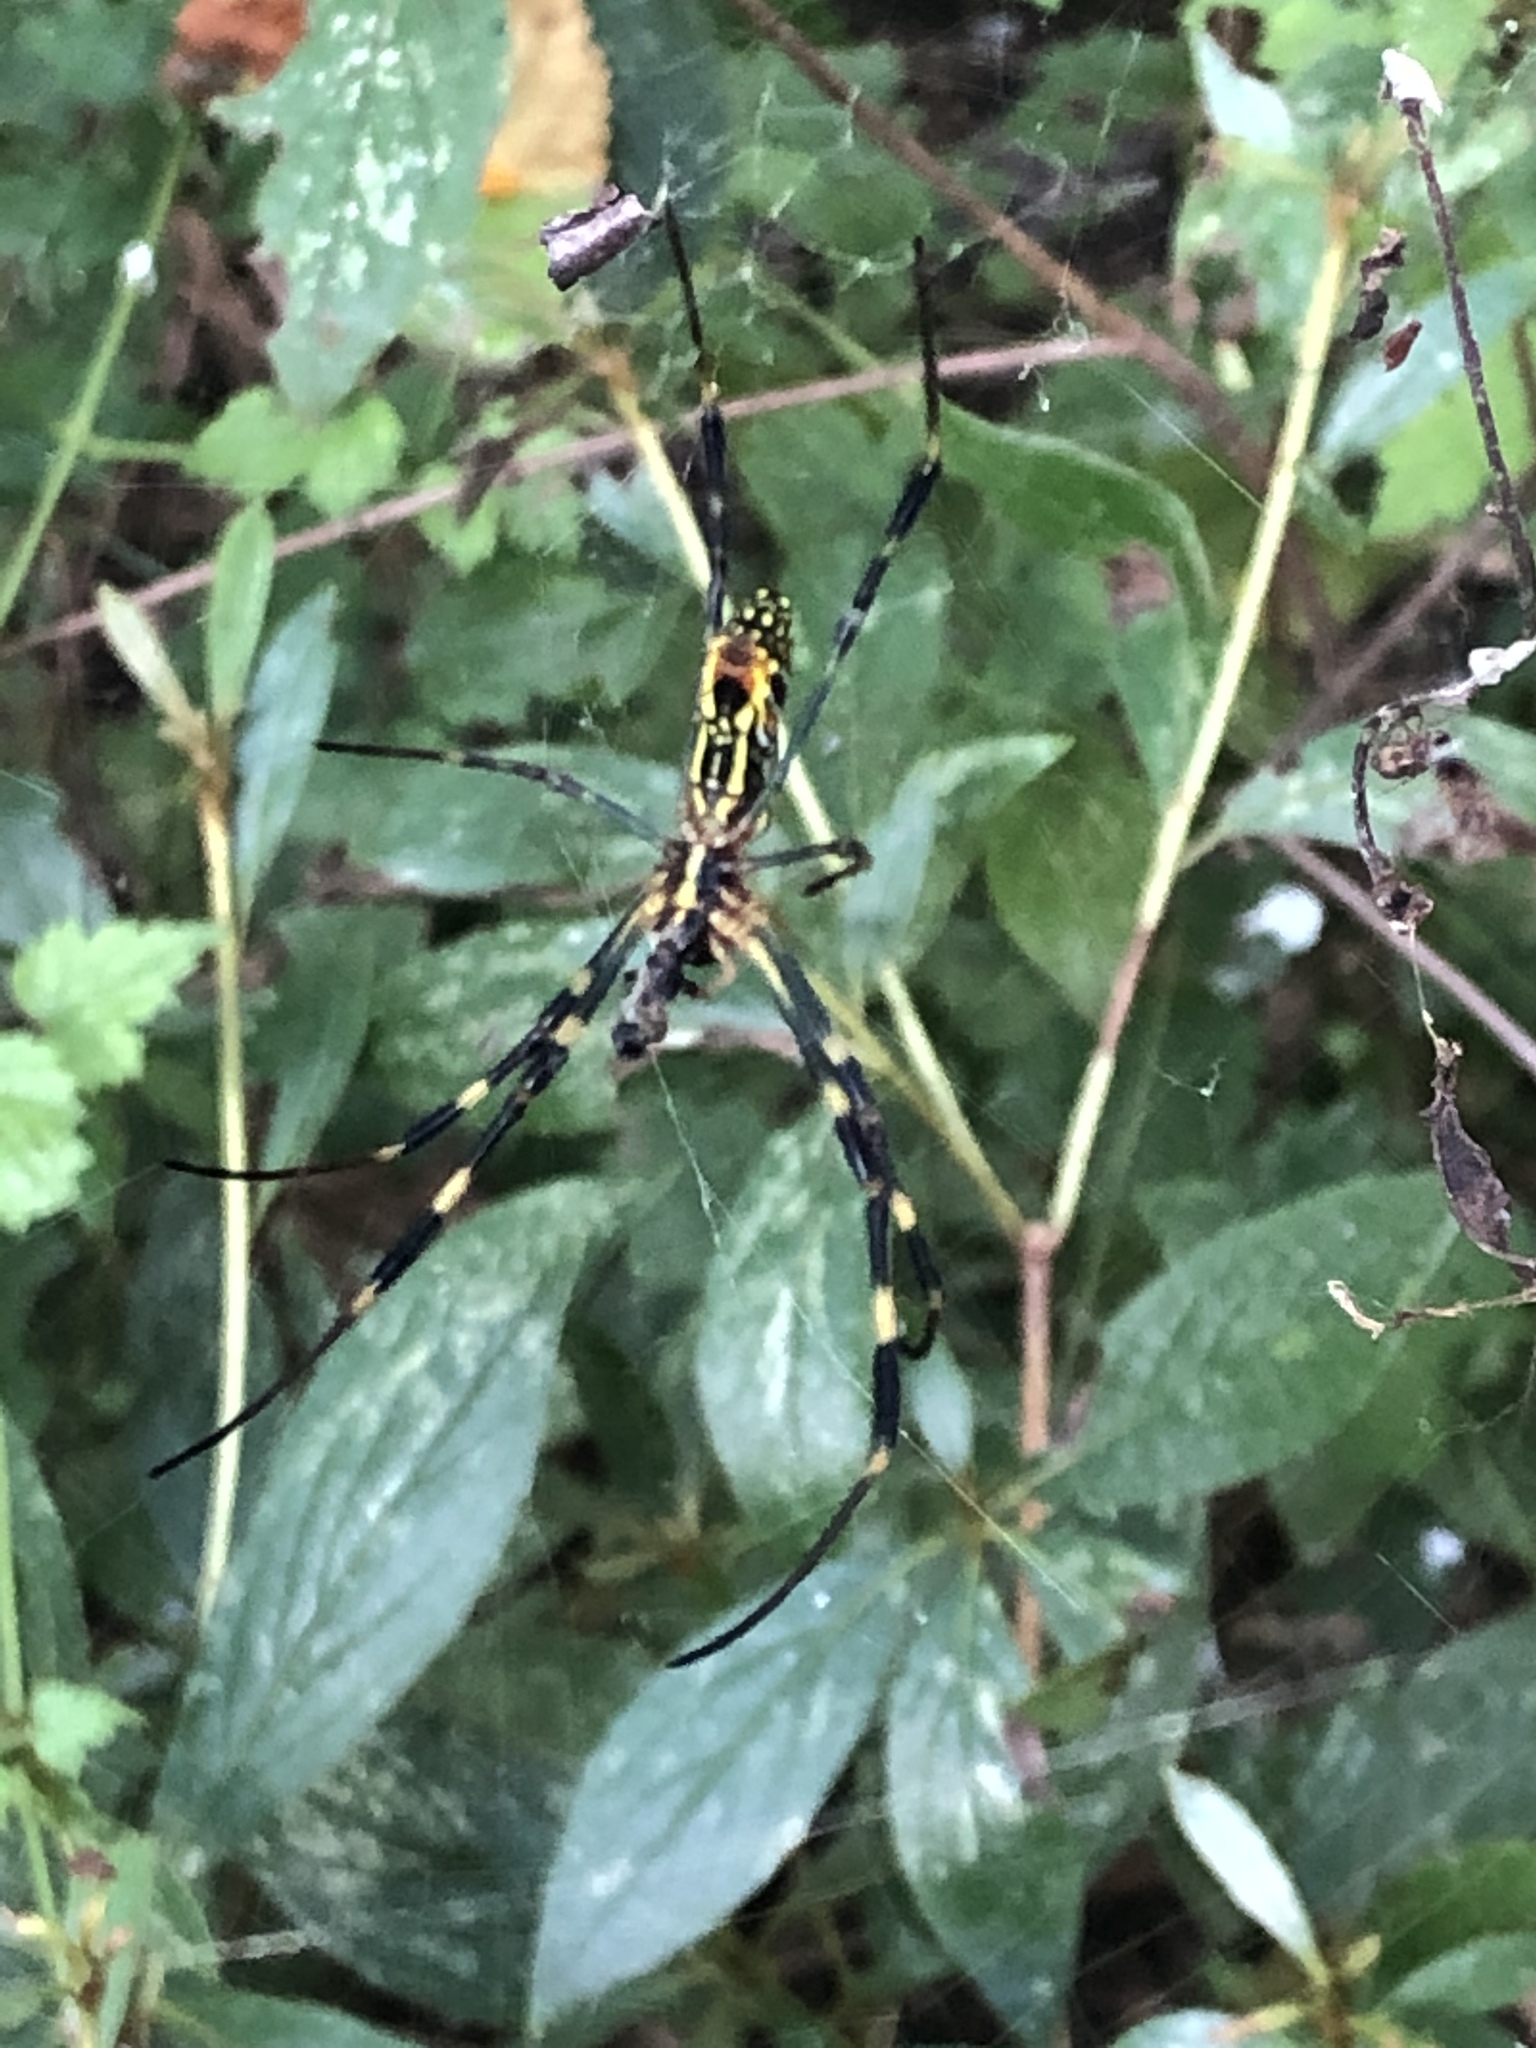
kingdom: Animalia
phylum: Arthropoda
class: Arachnida
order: Araneae
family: Araneidae
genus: Trichonephila
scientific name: Trichonephila clavata
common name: Jorō spider
